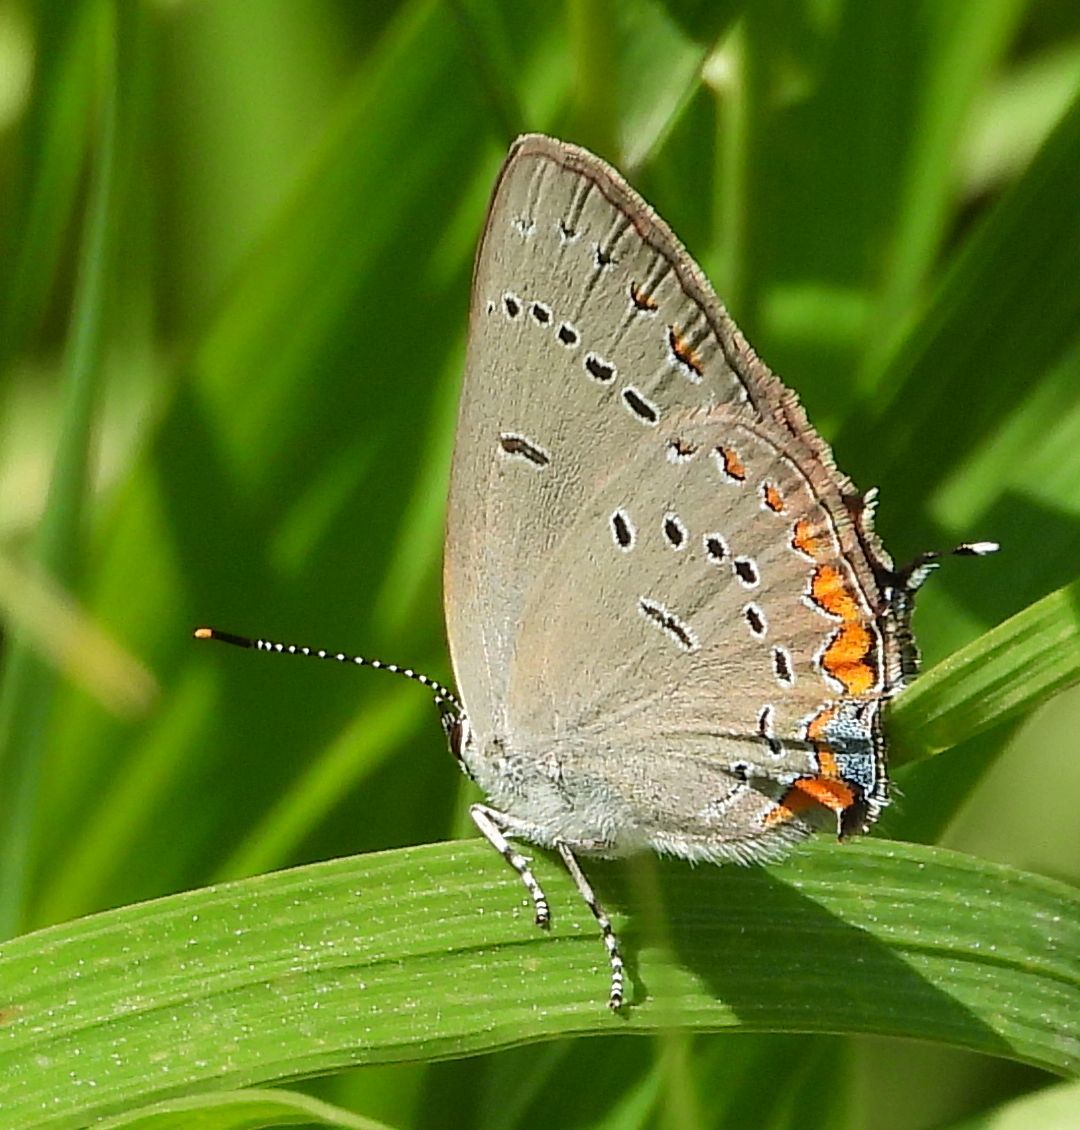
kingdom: Animalia
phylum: Arthropoda
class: Insecta
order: Lepidoptera
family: Lycaenidae
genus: Strymon
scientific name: Strymon acadica
